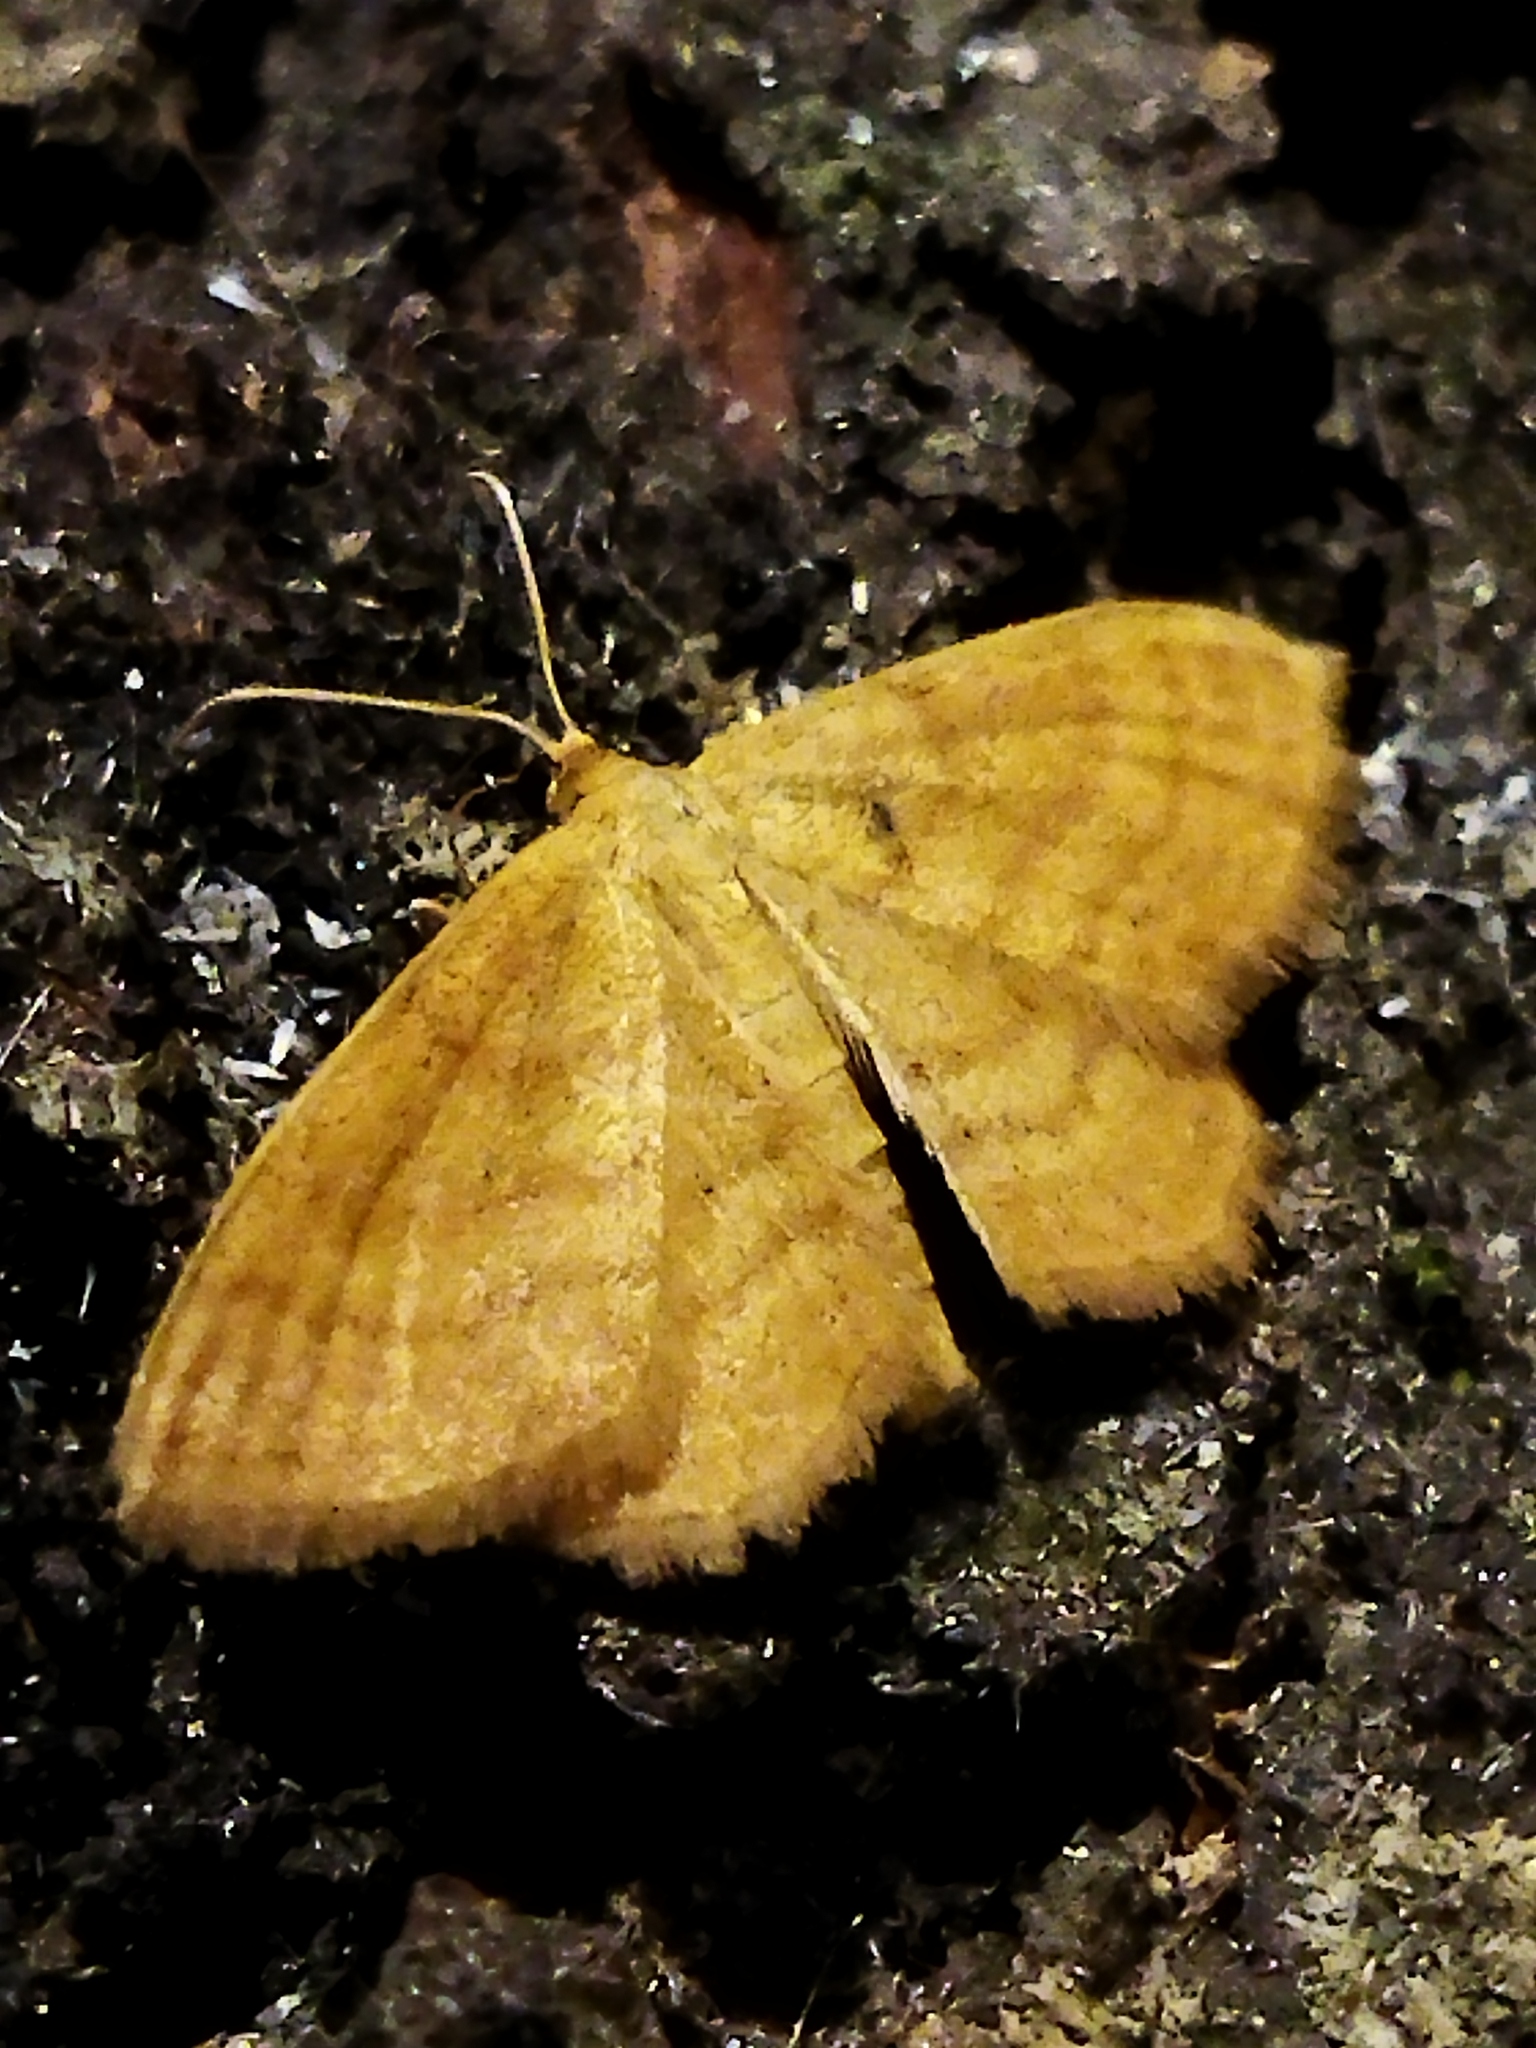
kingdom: Animalia
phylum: Arthropoda
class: Insecta
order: Lepidoptera
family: Geometridae
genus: Idaea
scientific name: Idaea ochrata
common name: Bright wave
